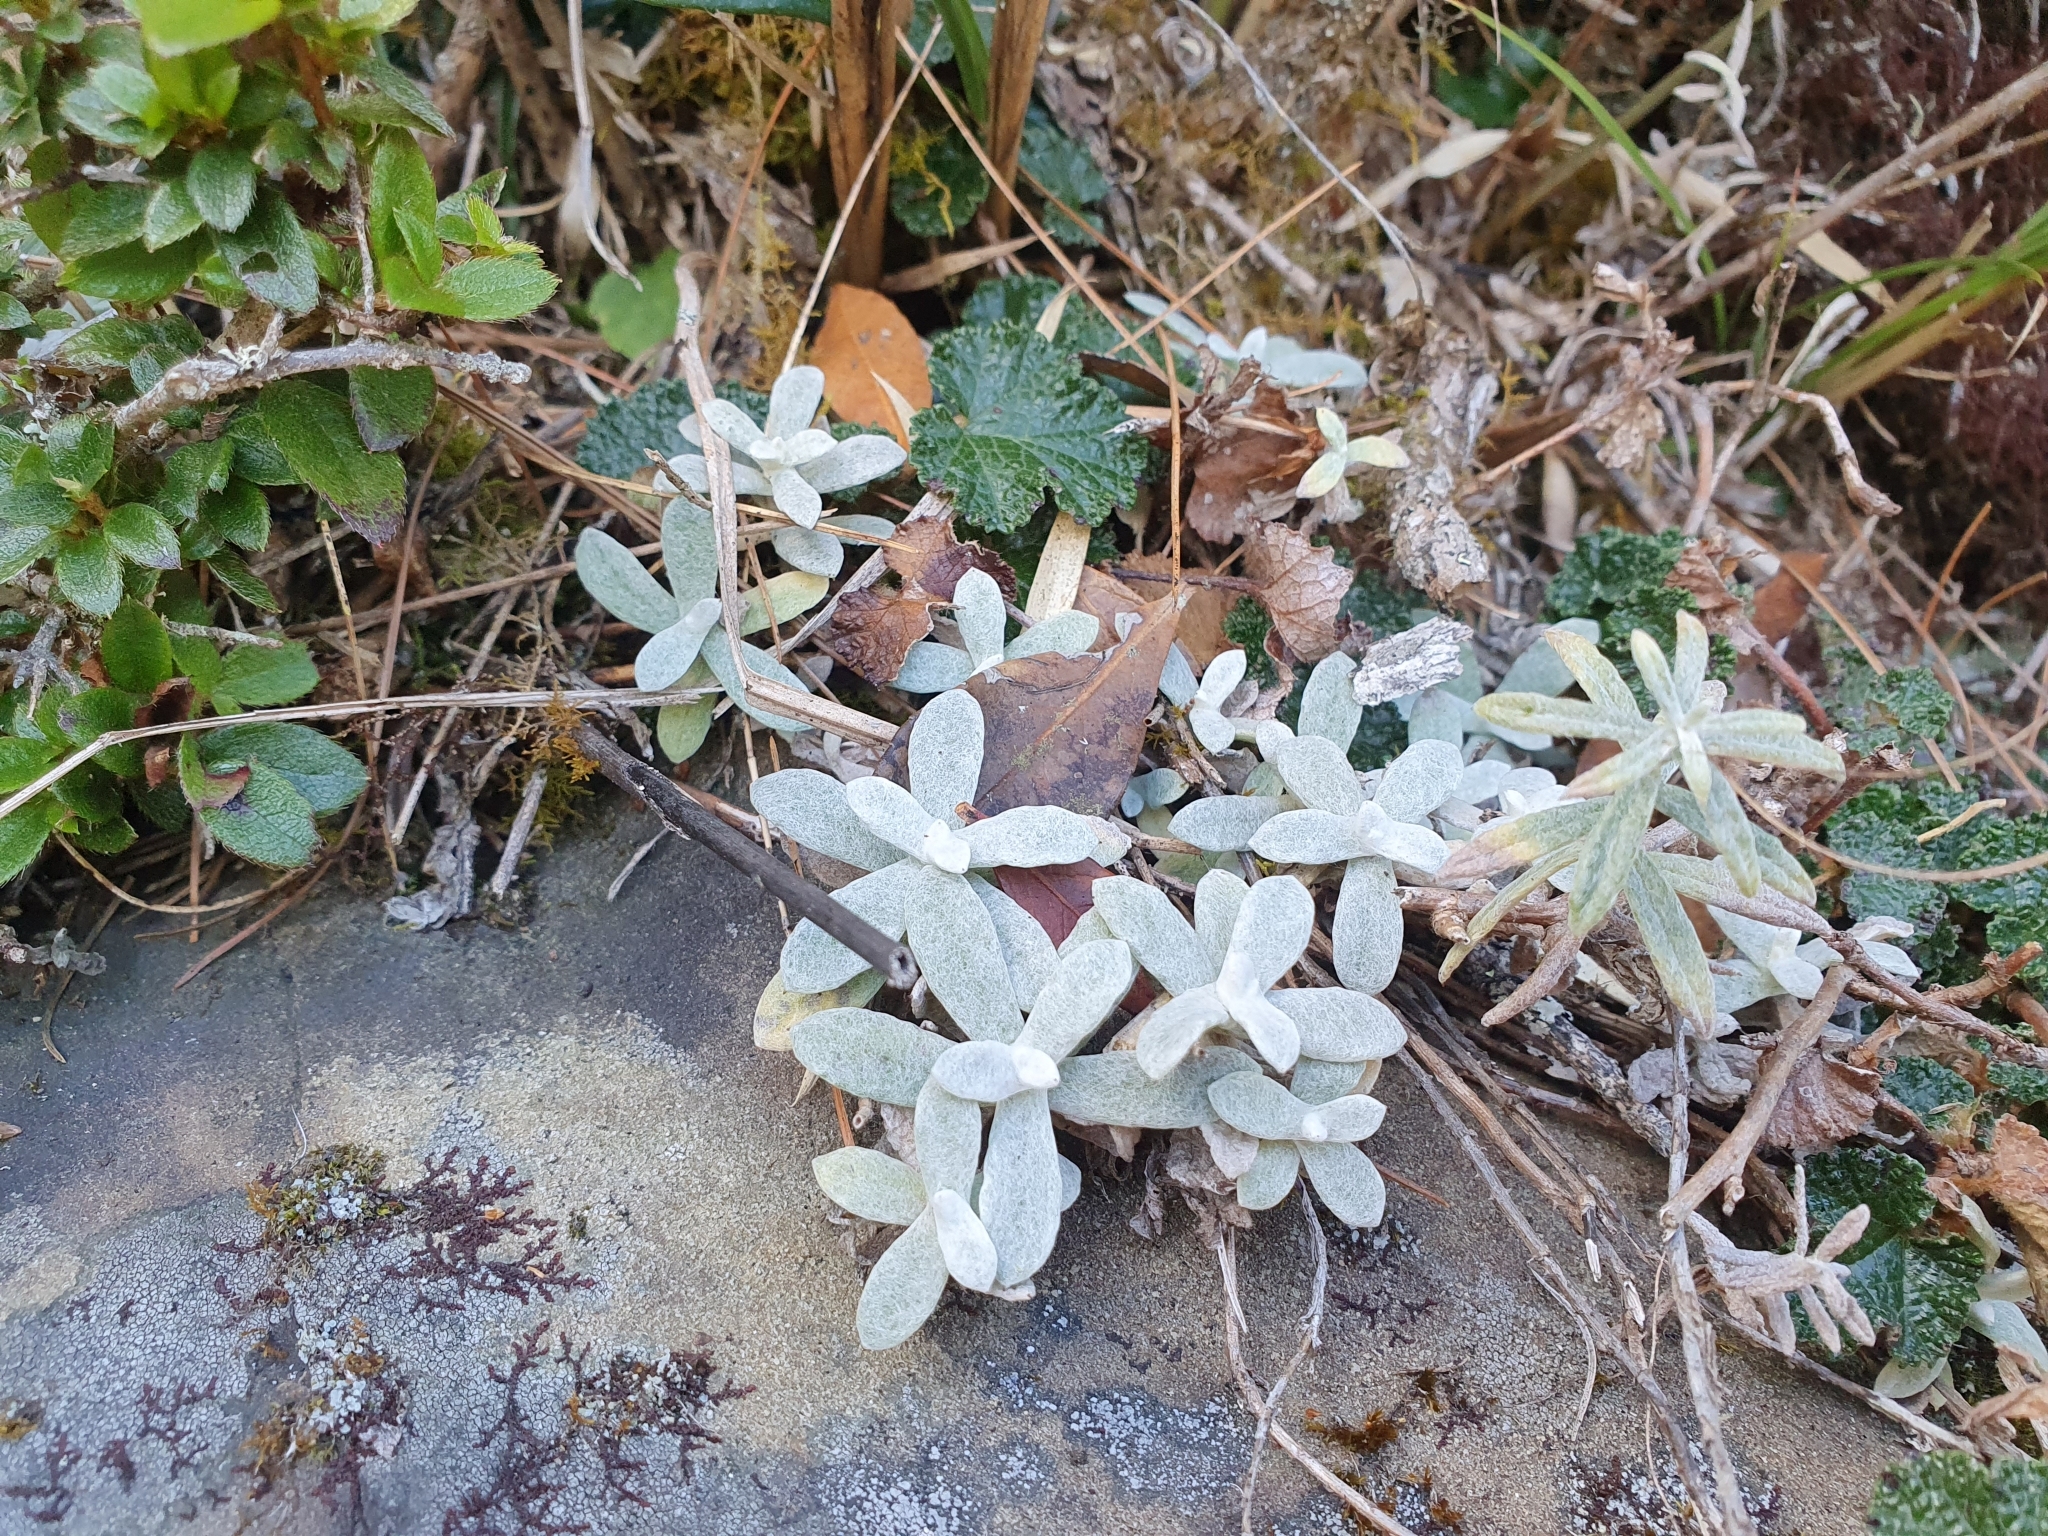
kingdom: Plantae
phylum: Tracheophyta
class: Magnoliopsida
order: Asterales
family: Asteraceae
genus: Anaphalis
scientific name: Anaphalis morrisonicola
